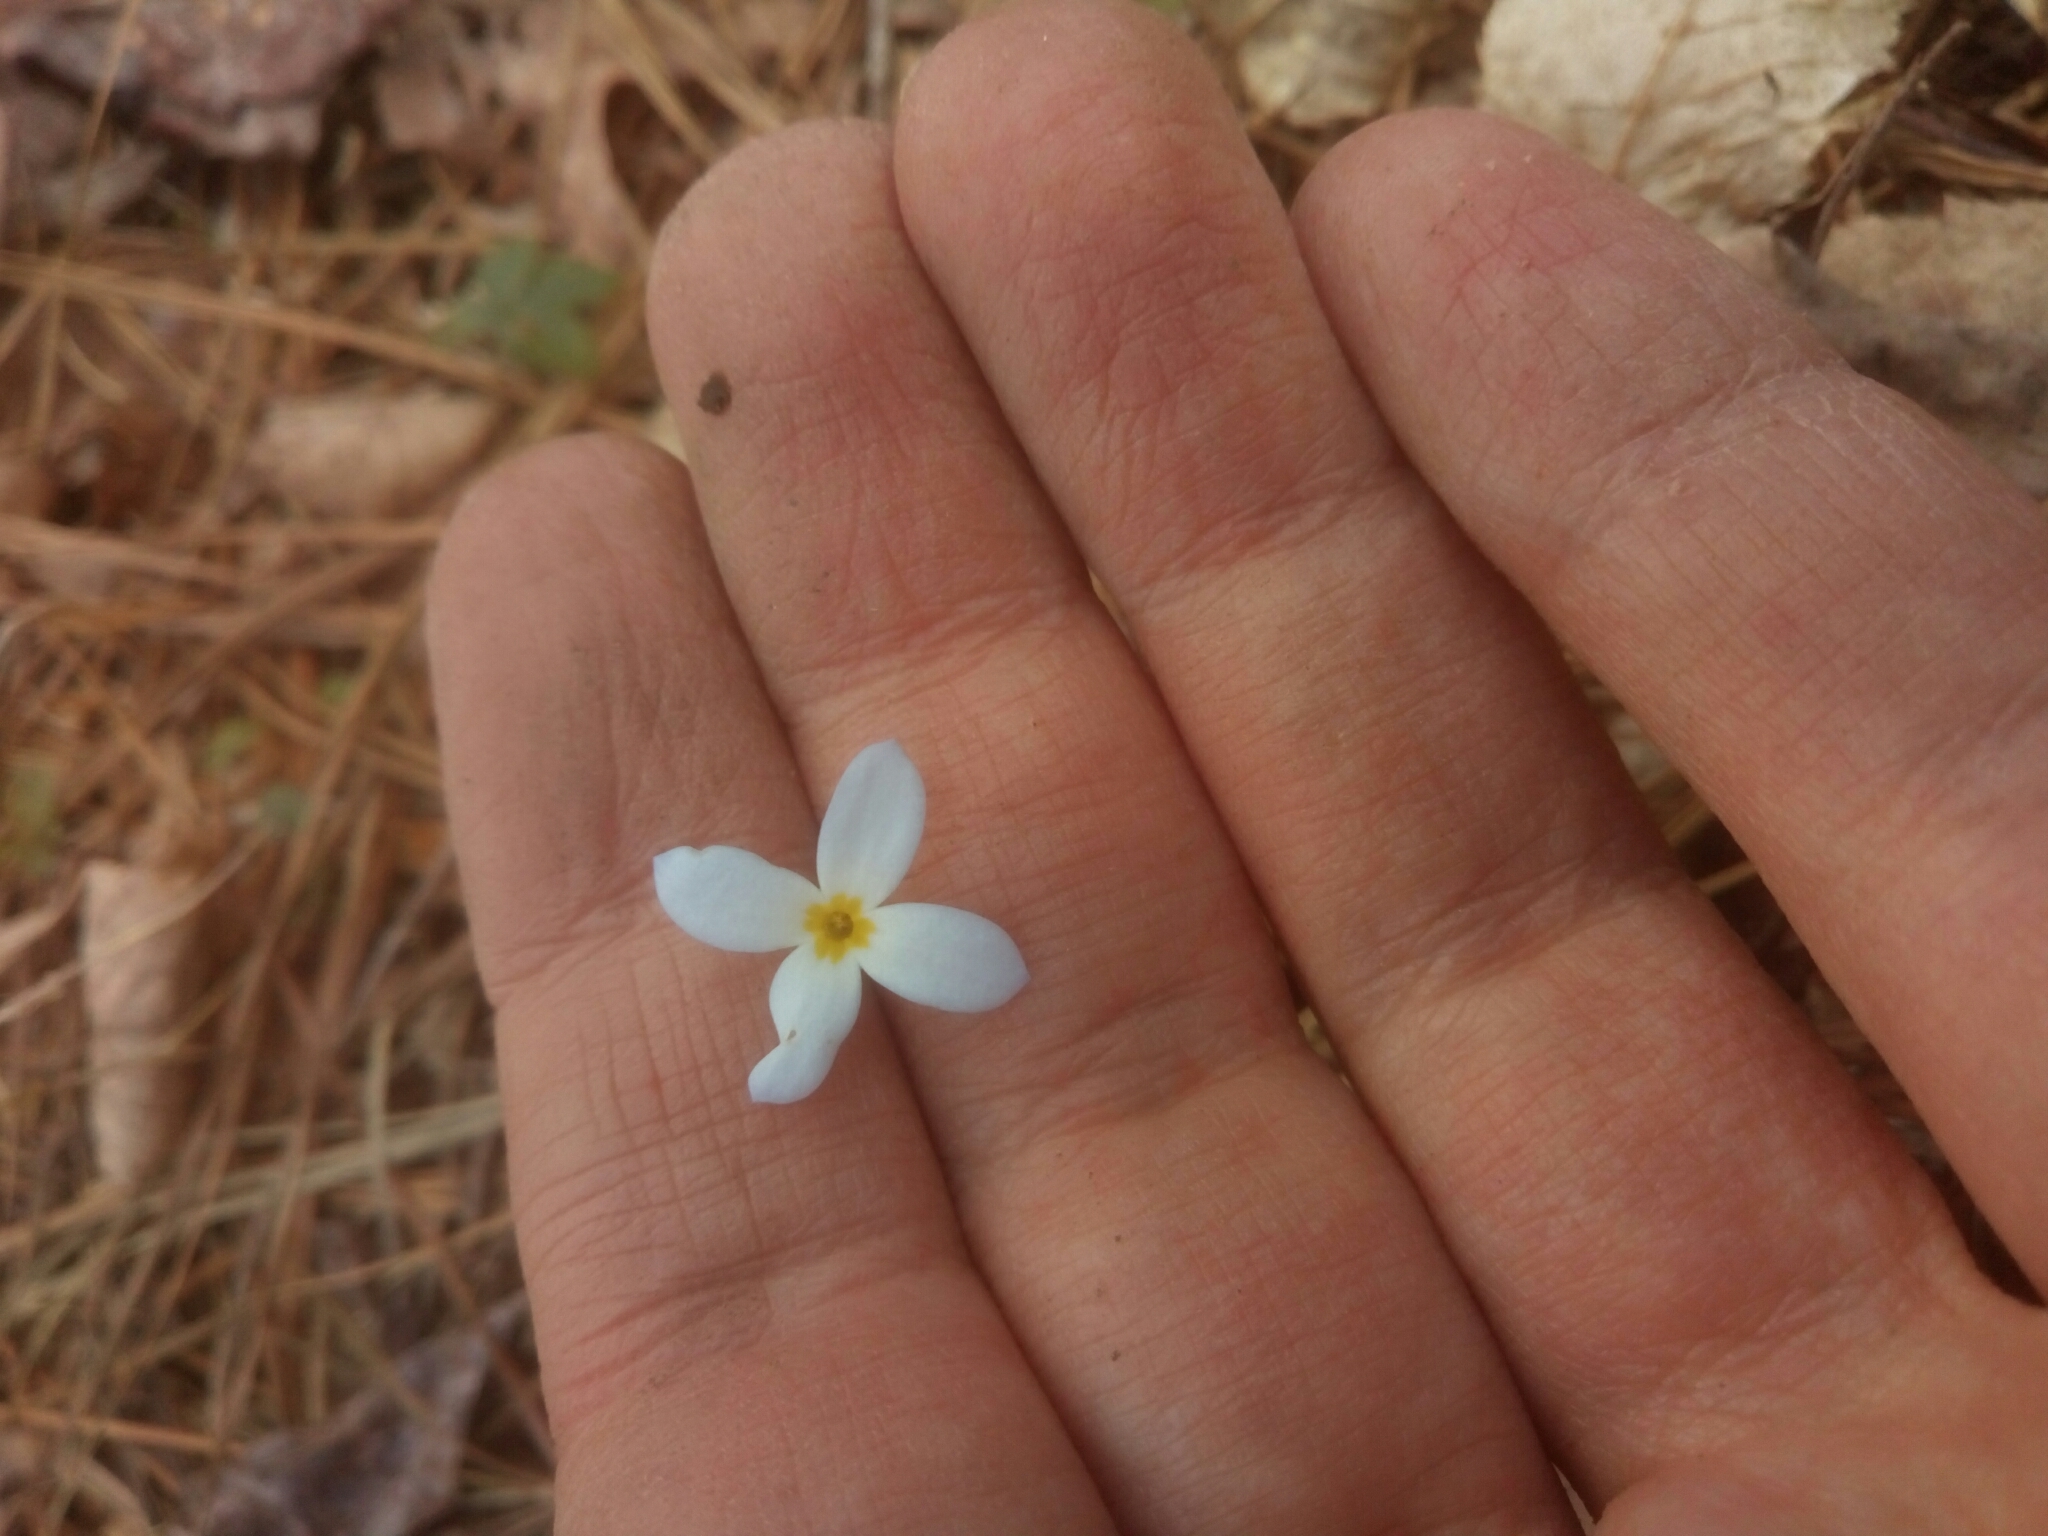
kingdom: Plantae
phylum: Tracheophyta
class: Magnoliopsida
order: Gentianales
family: Rubiaceae
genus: Houstonia
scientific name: Houstonia caerulea
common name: Bluets
